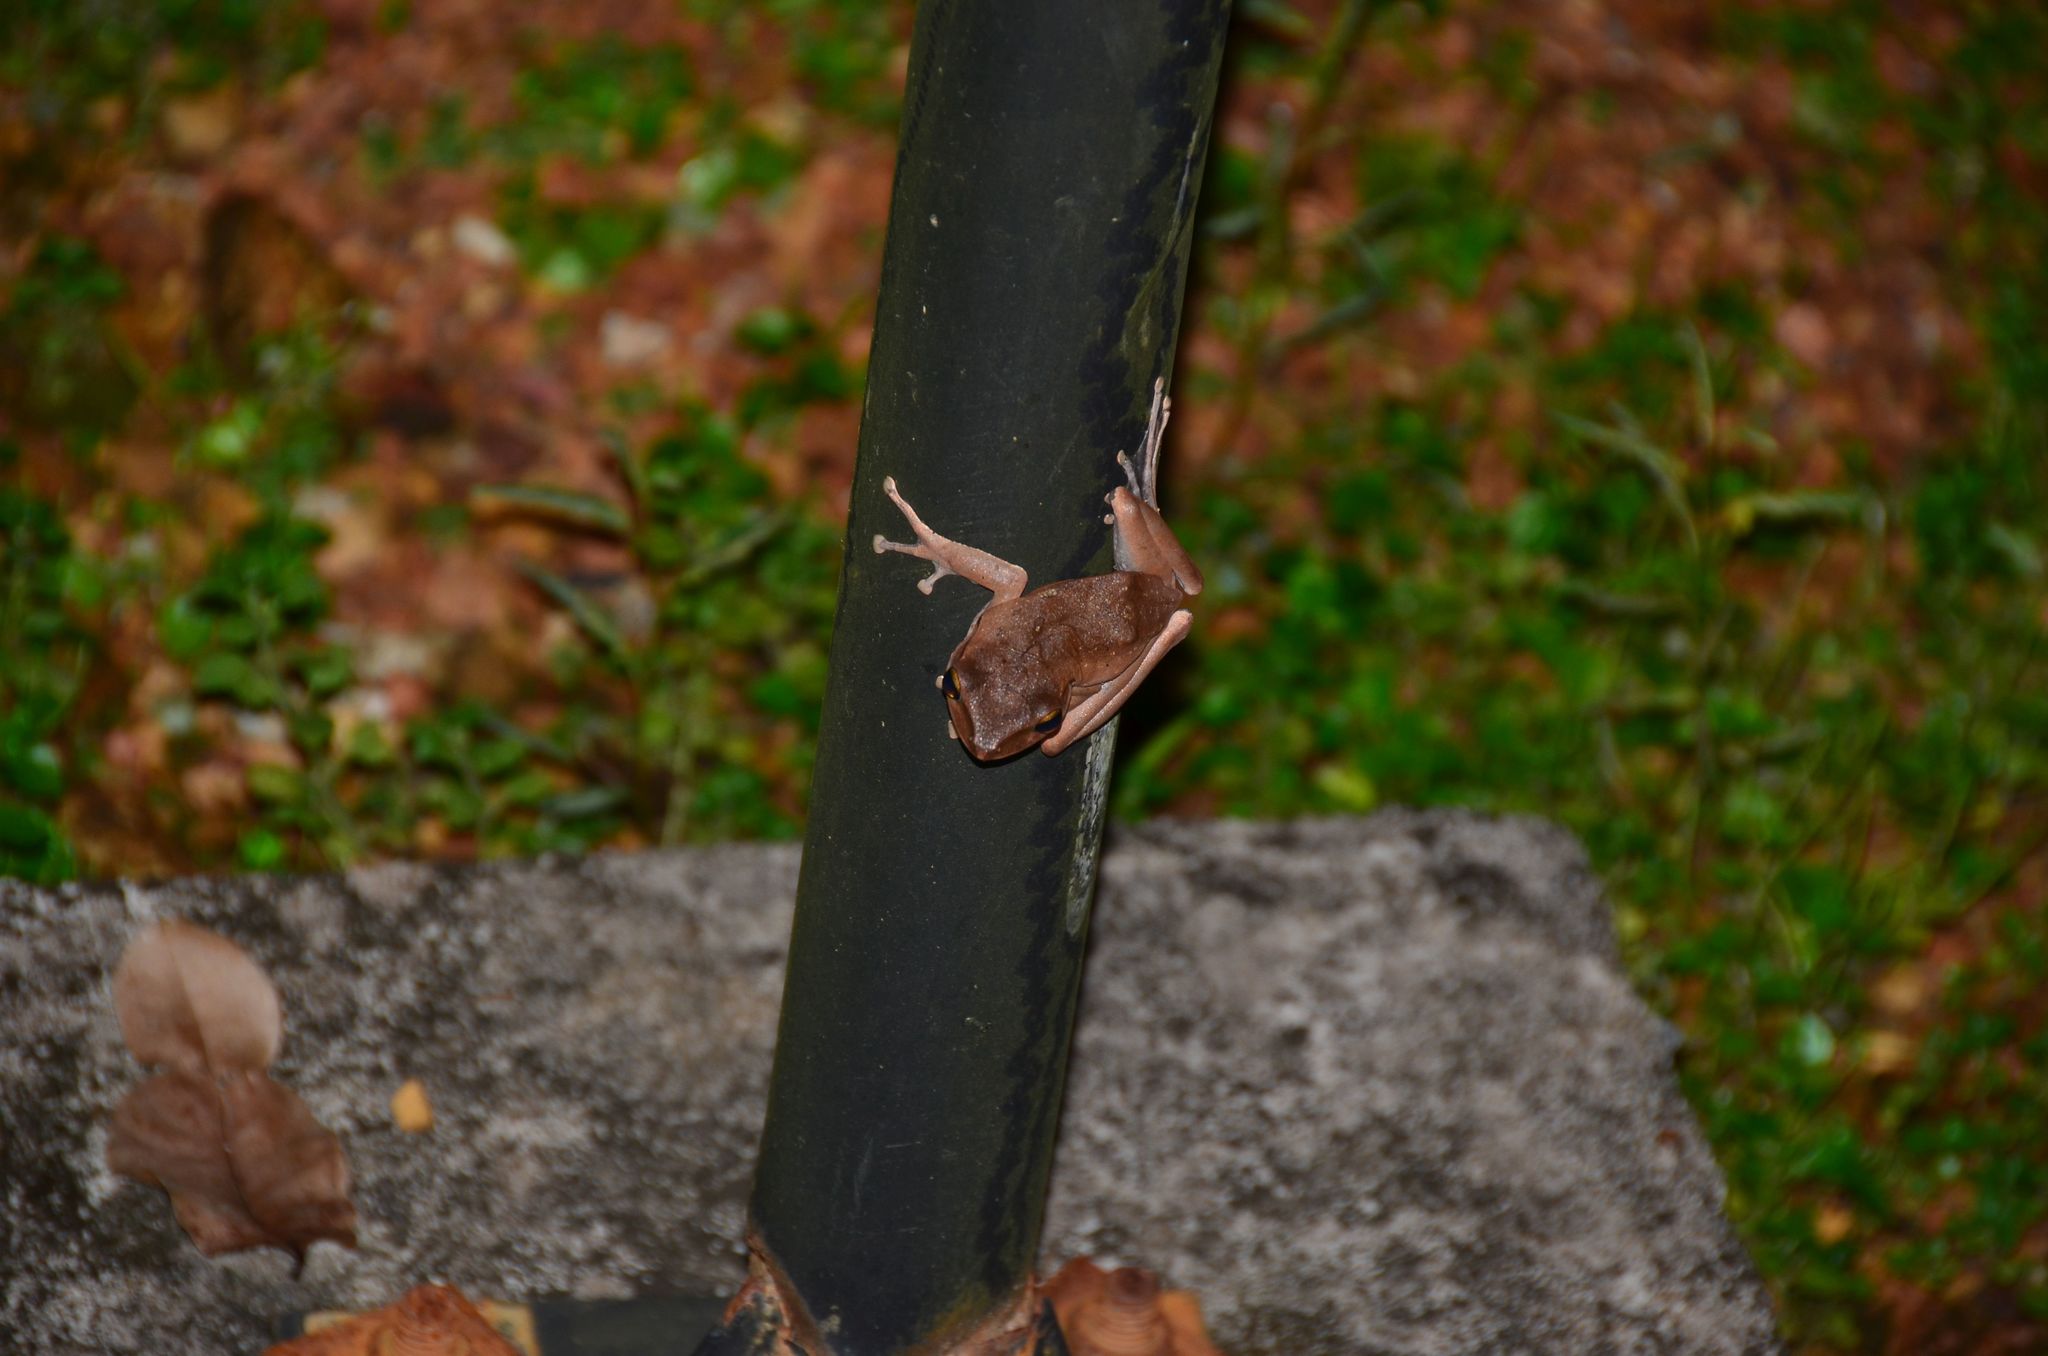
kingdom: Animalia
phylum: Chordata
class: Amphibia
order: Anura
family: Rhacophoridae
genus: Polypedates
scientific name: Polypedates megacephalus
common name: Hong kong whipping frog
